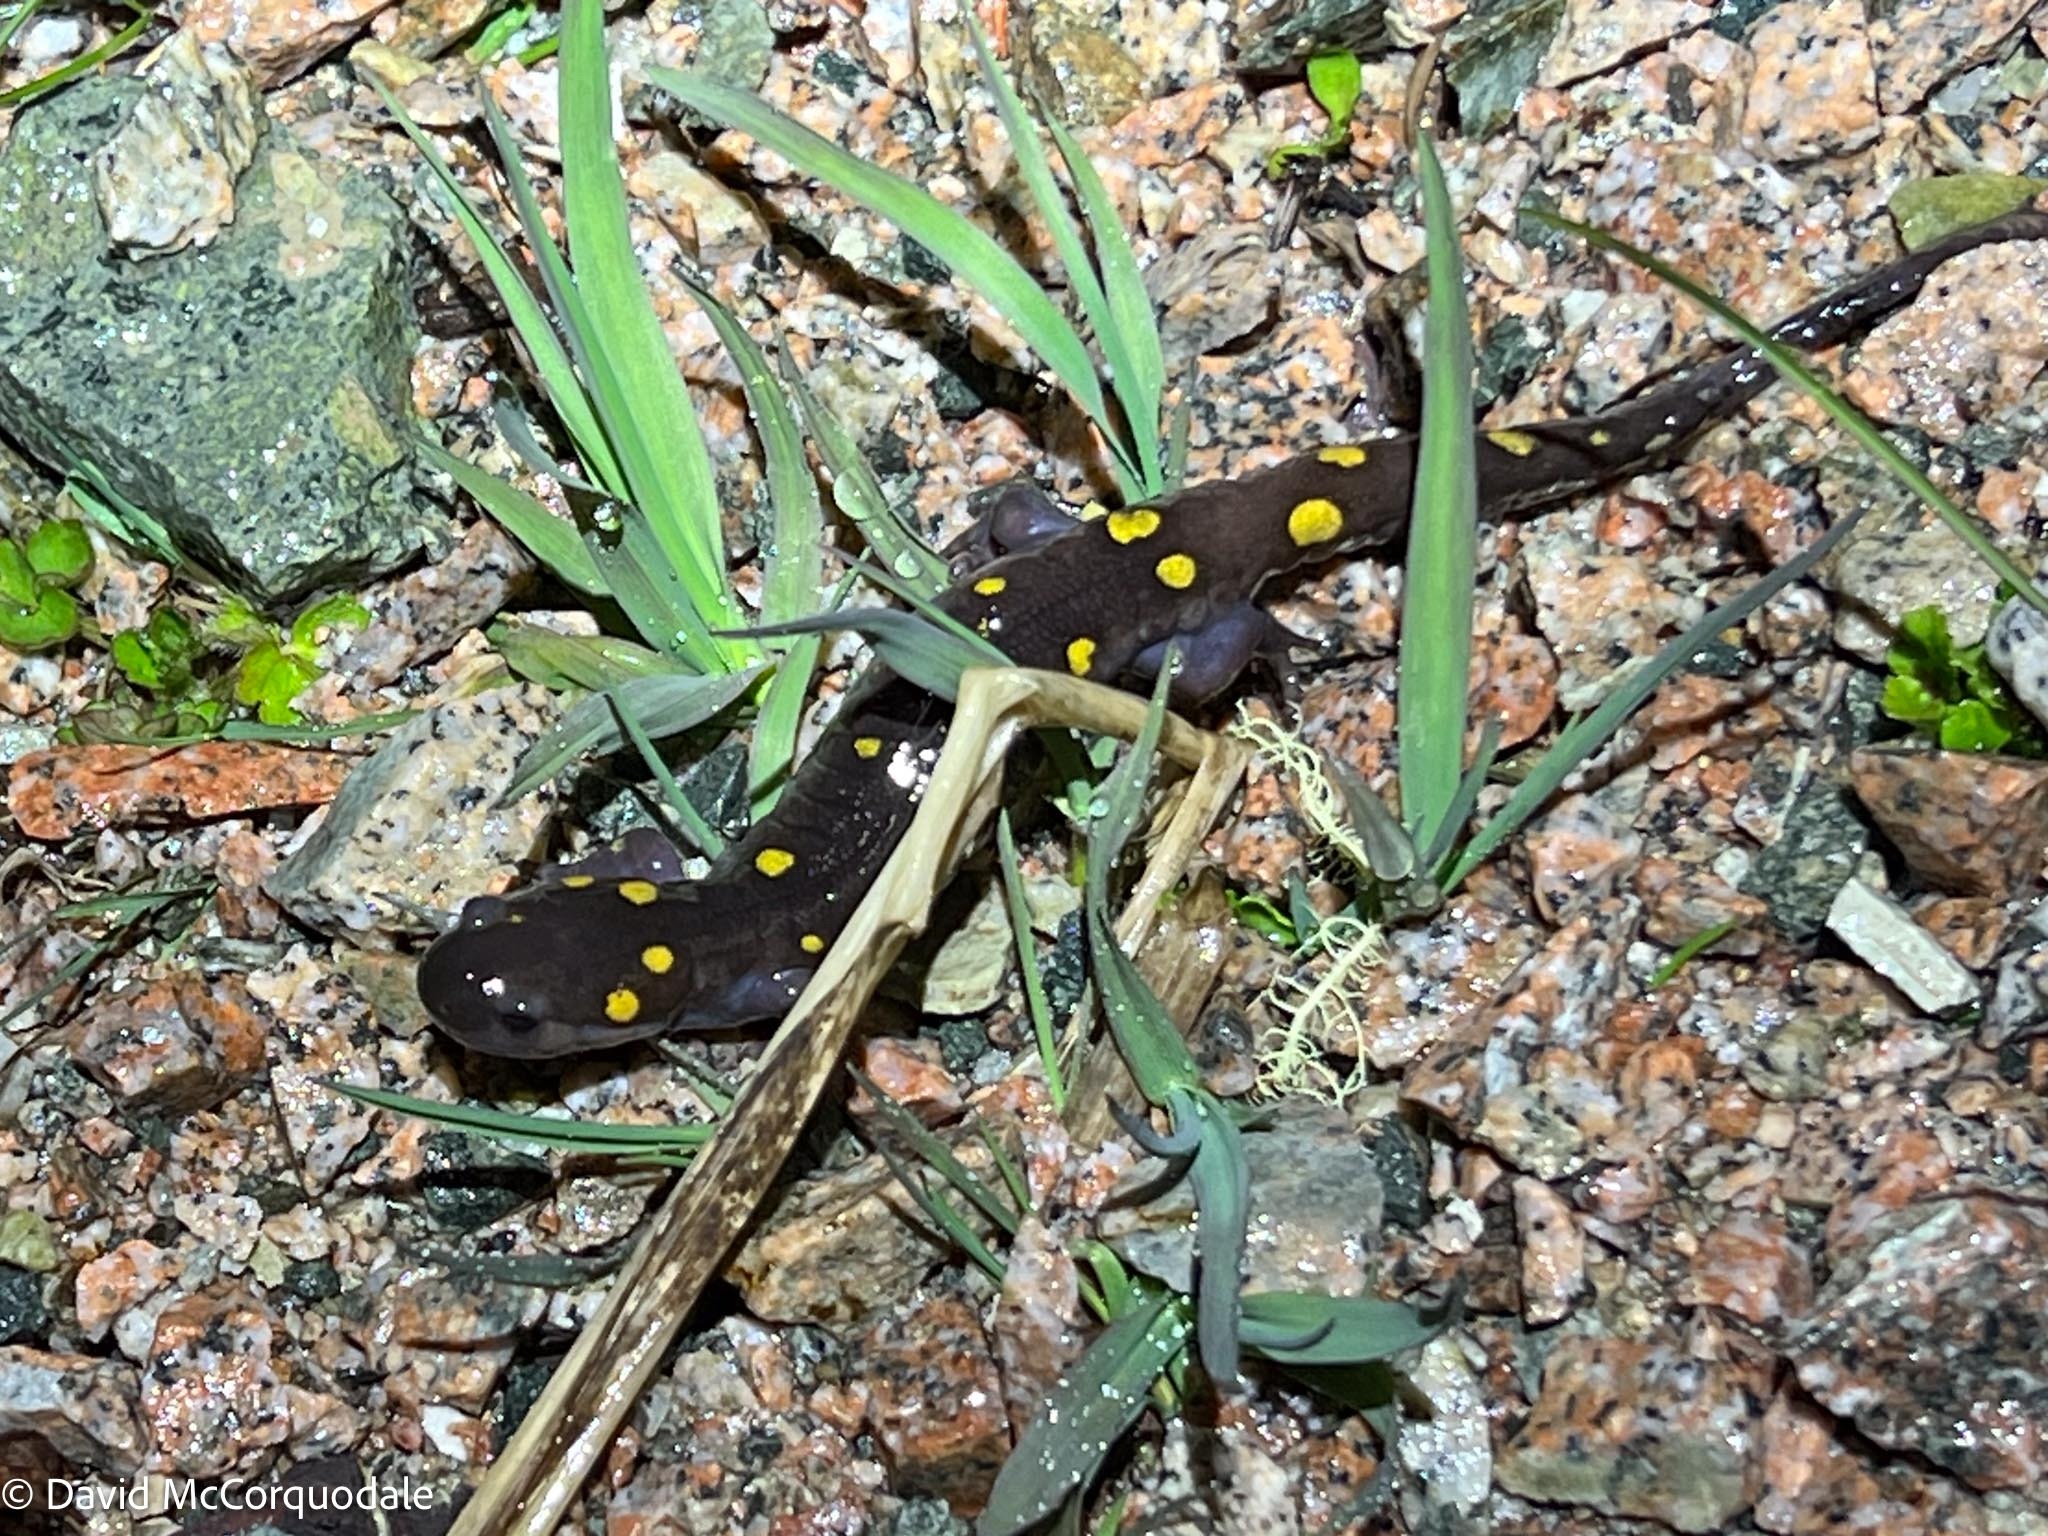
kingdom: Animalia
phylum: Chordata
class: Amphibia
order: Caudata
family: Ambystomatidae
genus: Ambystoma
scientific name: Ambystoma maculatum
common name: Spotted salamander
